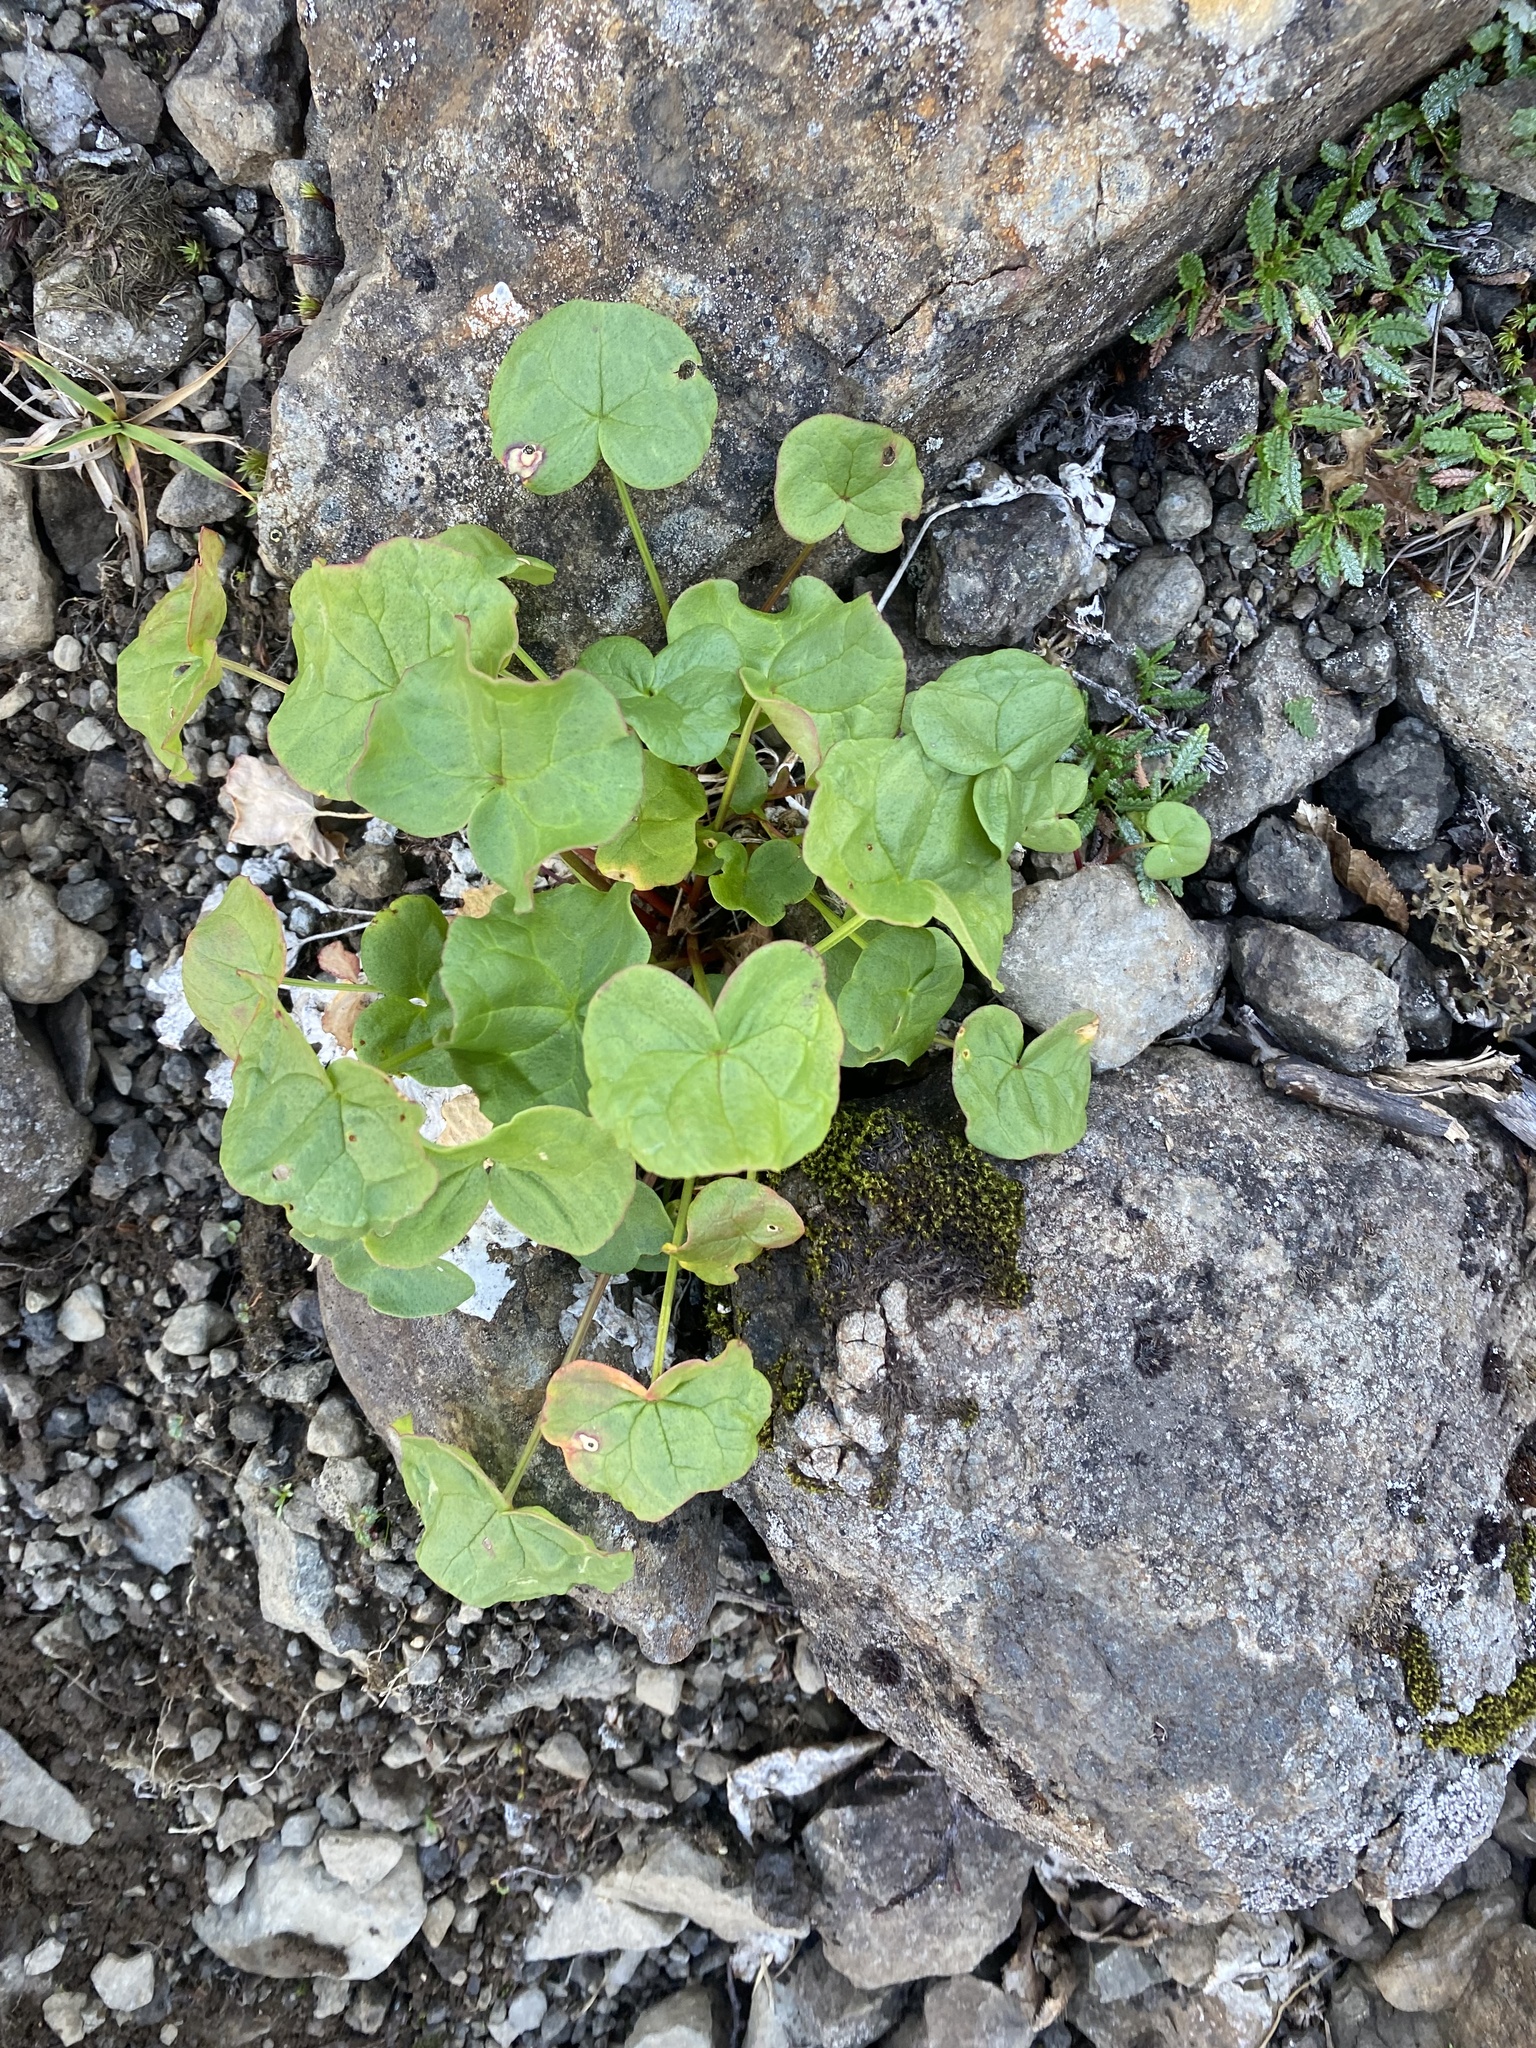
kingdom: Plantae
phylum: Tracheophyta
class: Magnoliopsida
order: Caryophyllales
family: Polygonaceae
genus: Oxyria
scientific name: Oxyria digyna
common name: Alpine mountain-sorrel
